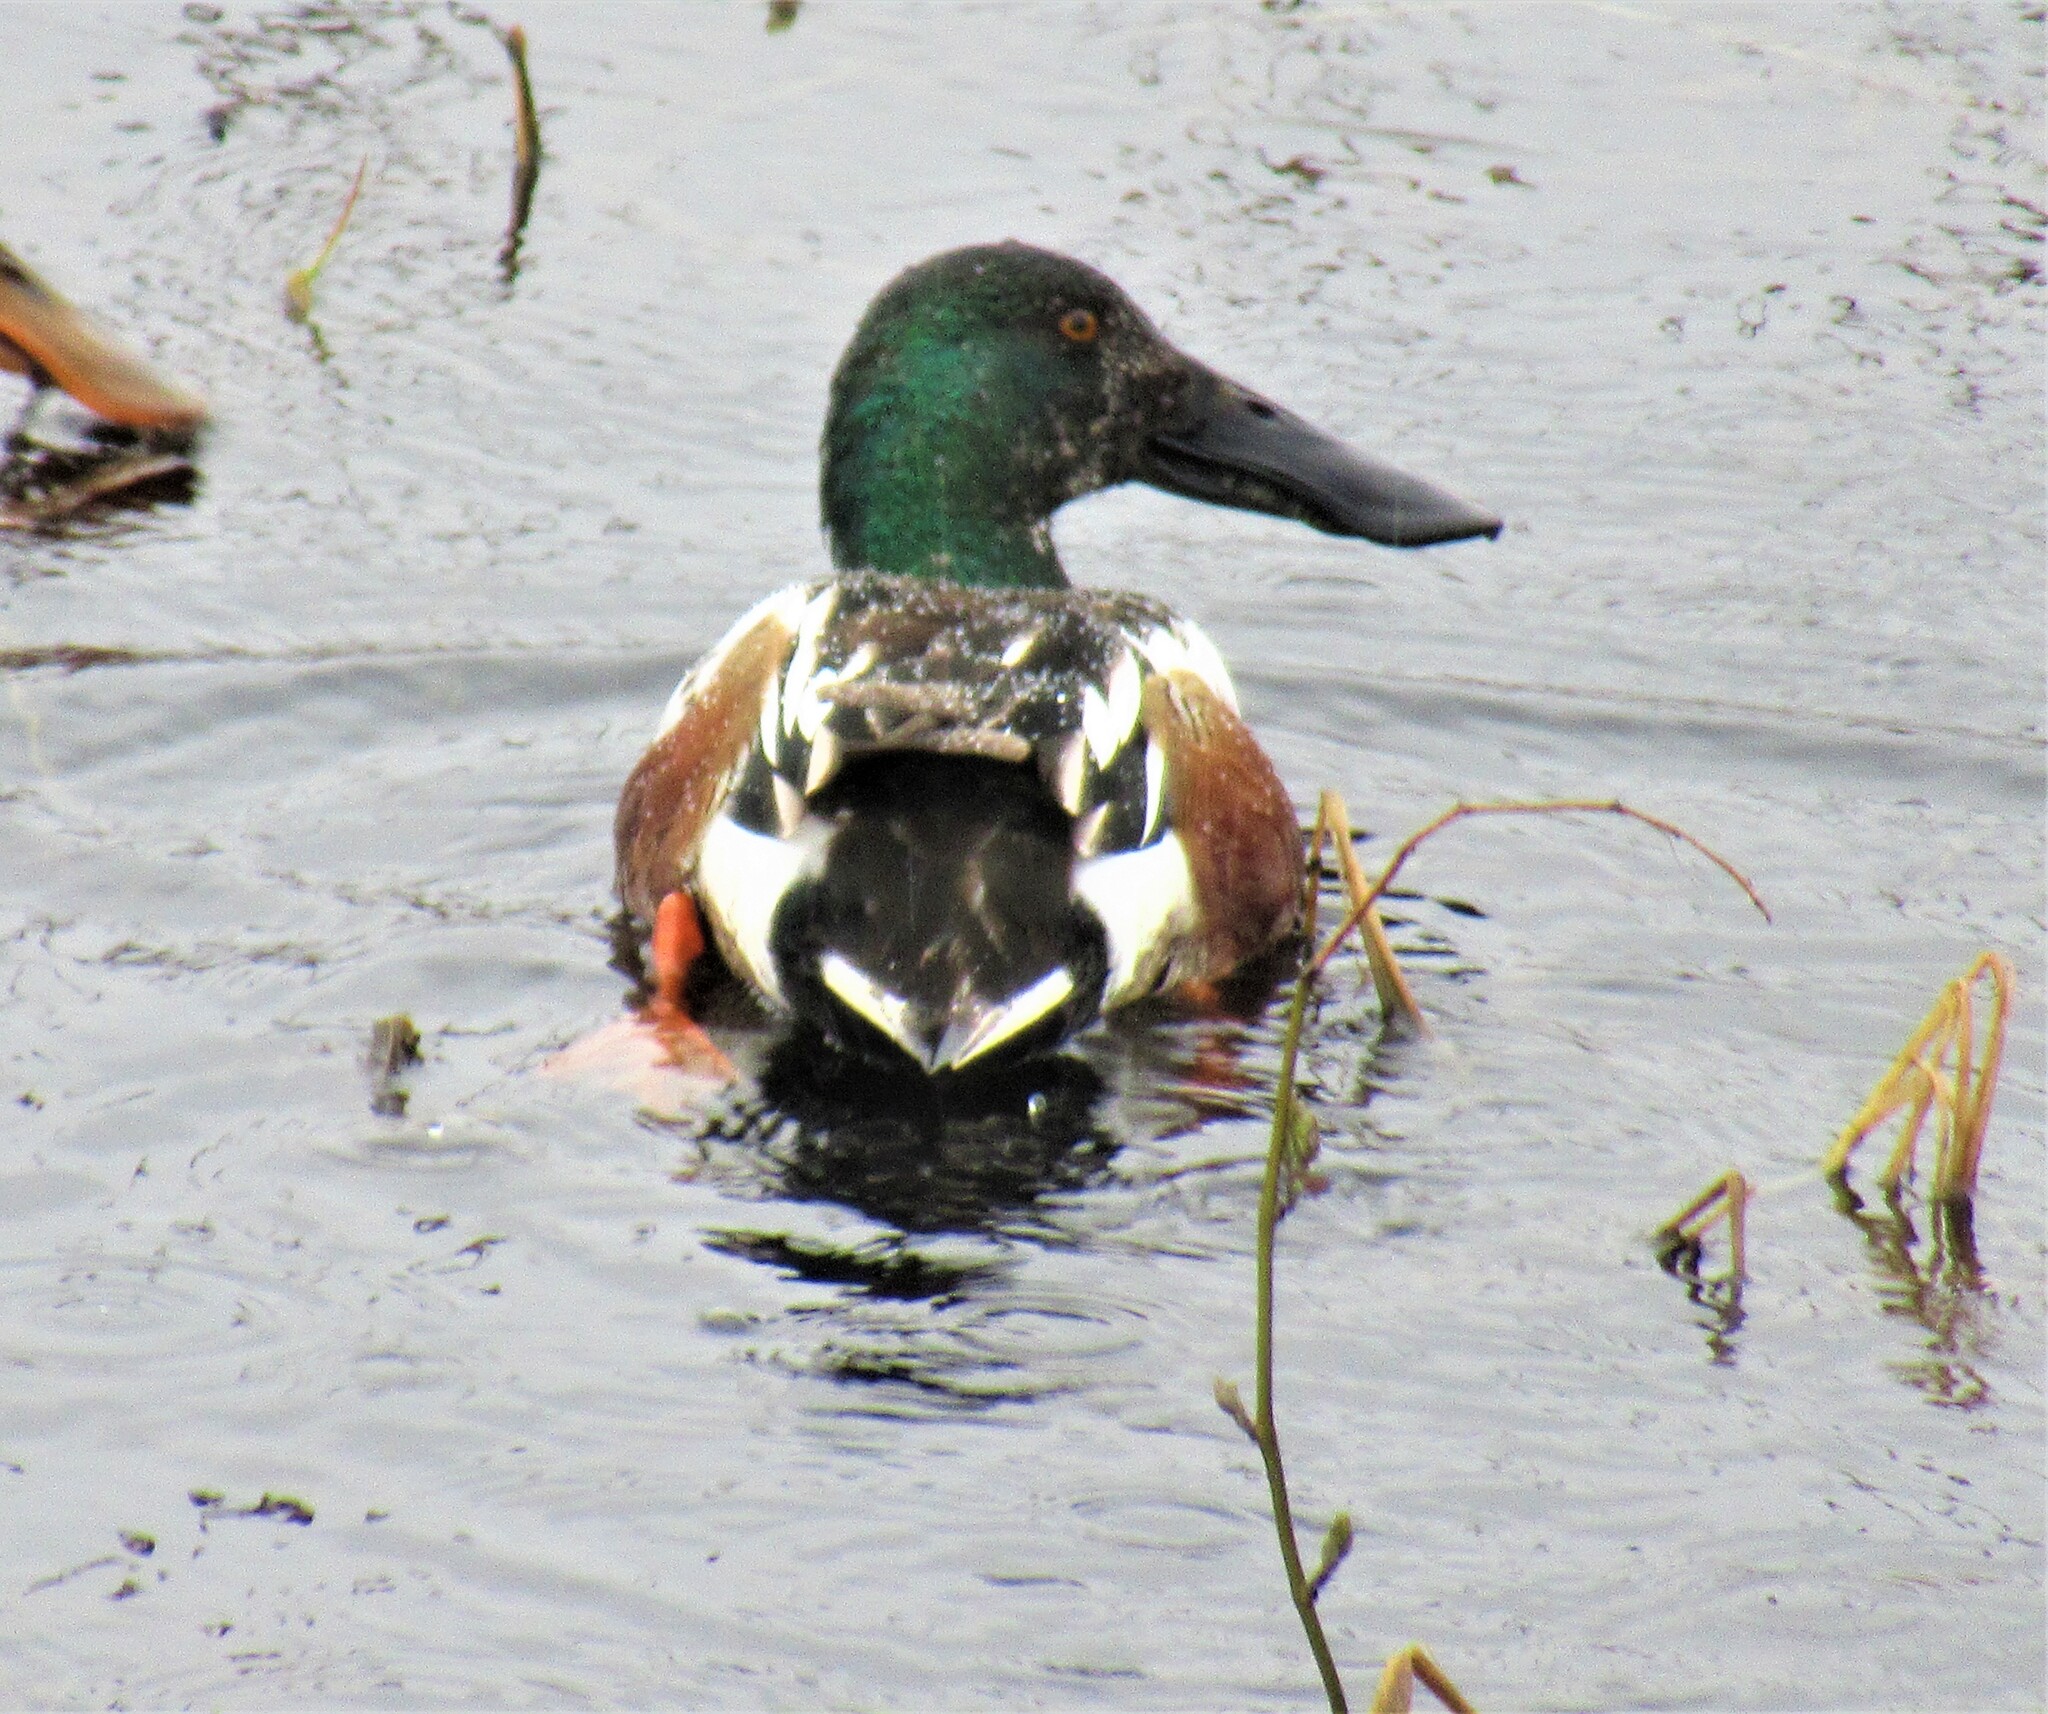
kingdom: Animalia
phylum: Chordata
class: Aves
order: Anseriformes
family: Anatidae
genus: Spatula
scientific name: Spatula clypeata
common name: Northern shoveler
